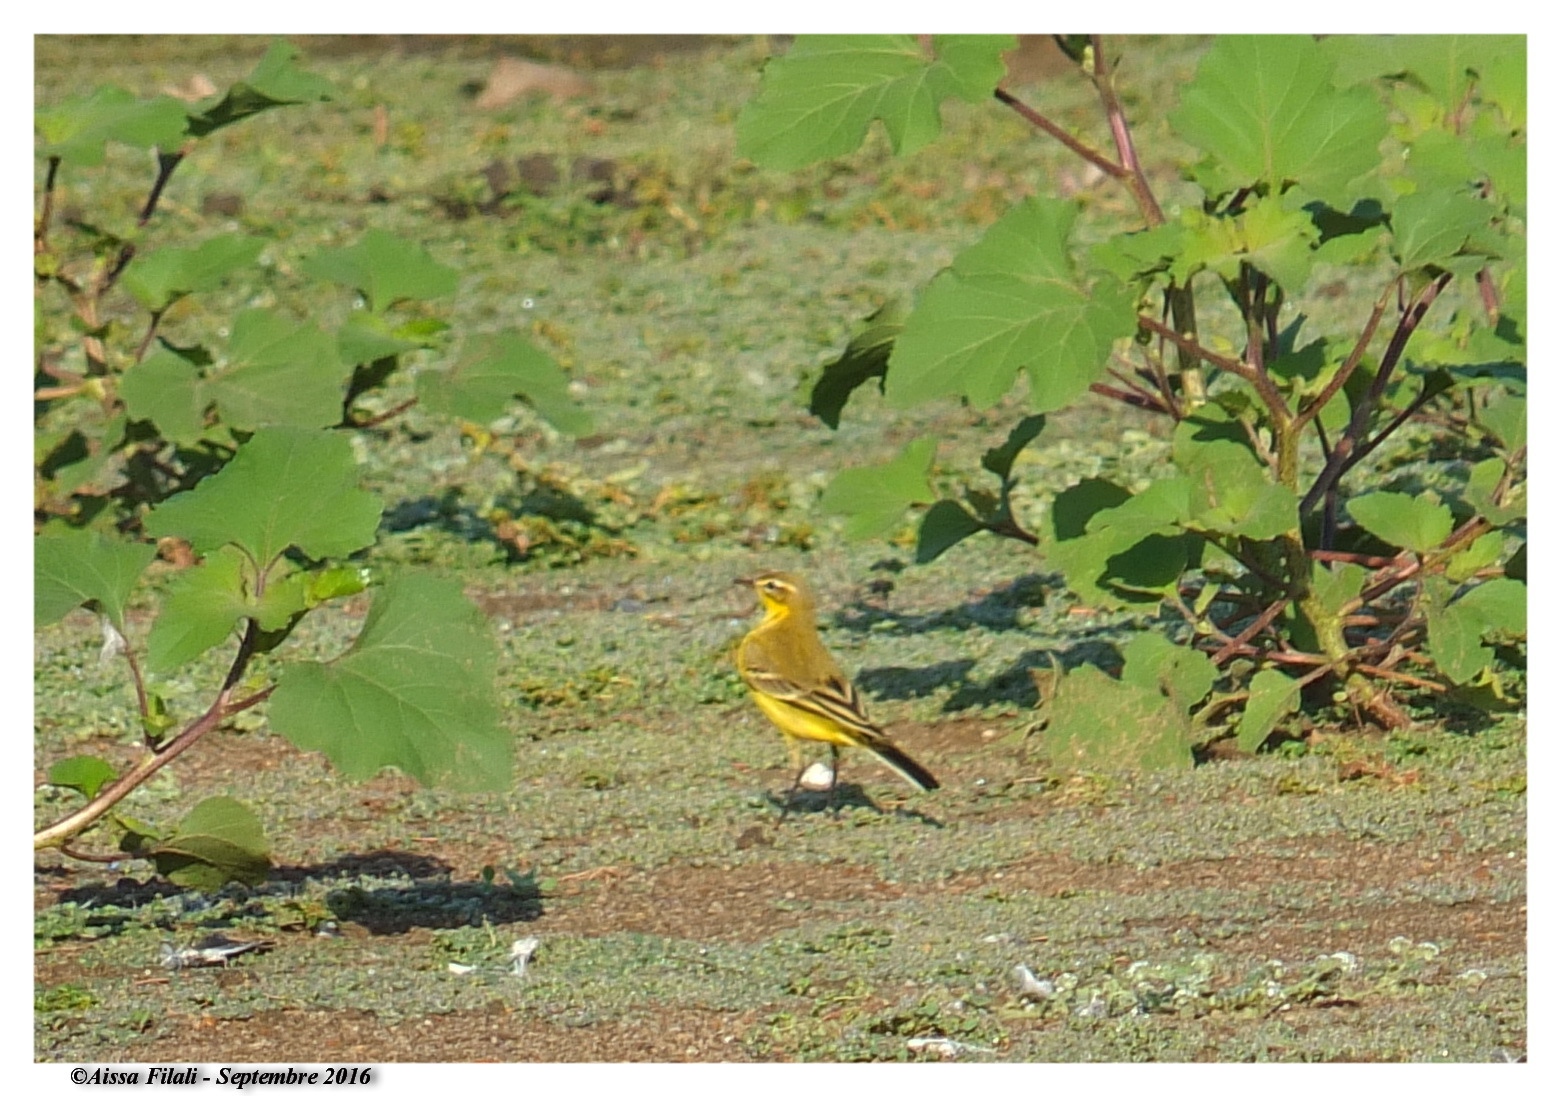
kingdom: Animalia
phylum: Chordata
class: Aves
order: Passeriformes
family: Motacillidae
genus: Motacilla
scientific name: Motacilla flava
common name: Western yellow wagtail
